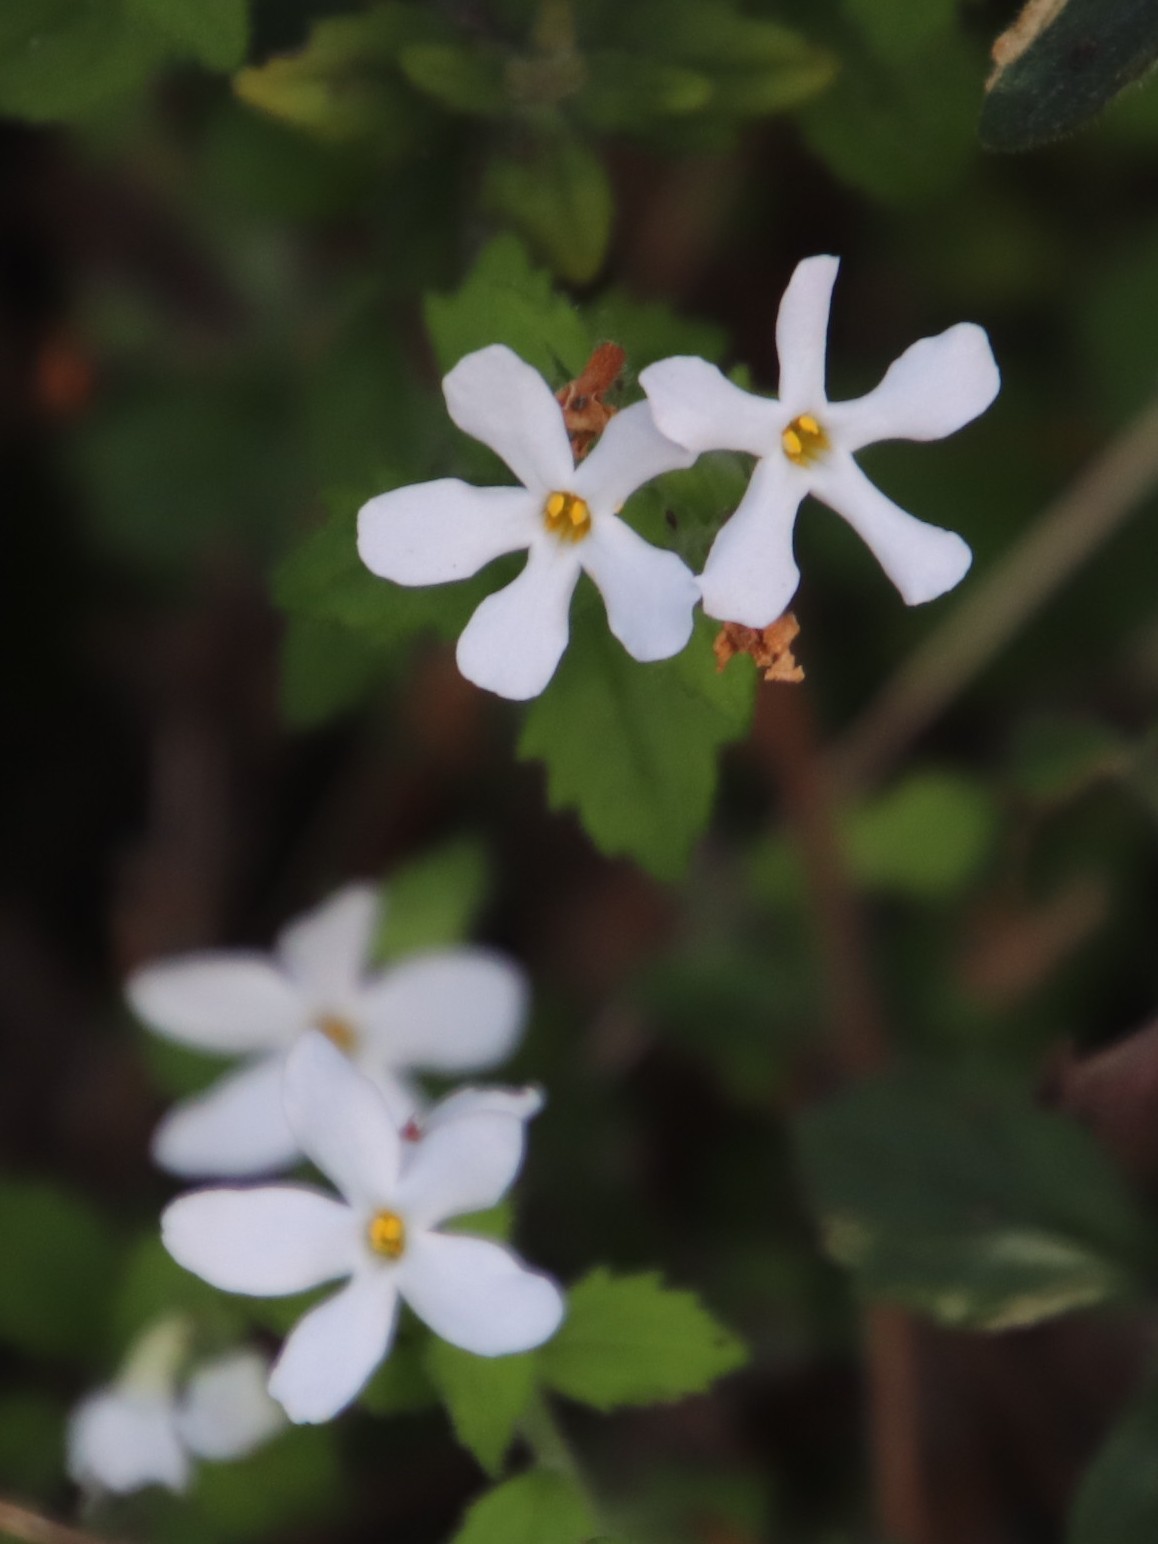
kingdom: Plantae
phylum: Tracheophyta
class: Magnoliopsida
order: Lamiales
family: Scrophulariaceae
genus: Chaenostoma
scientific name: Chaenostoma hispidum
